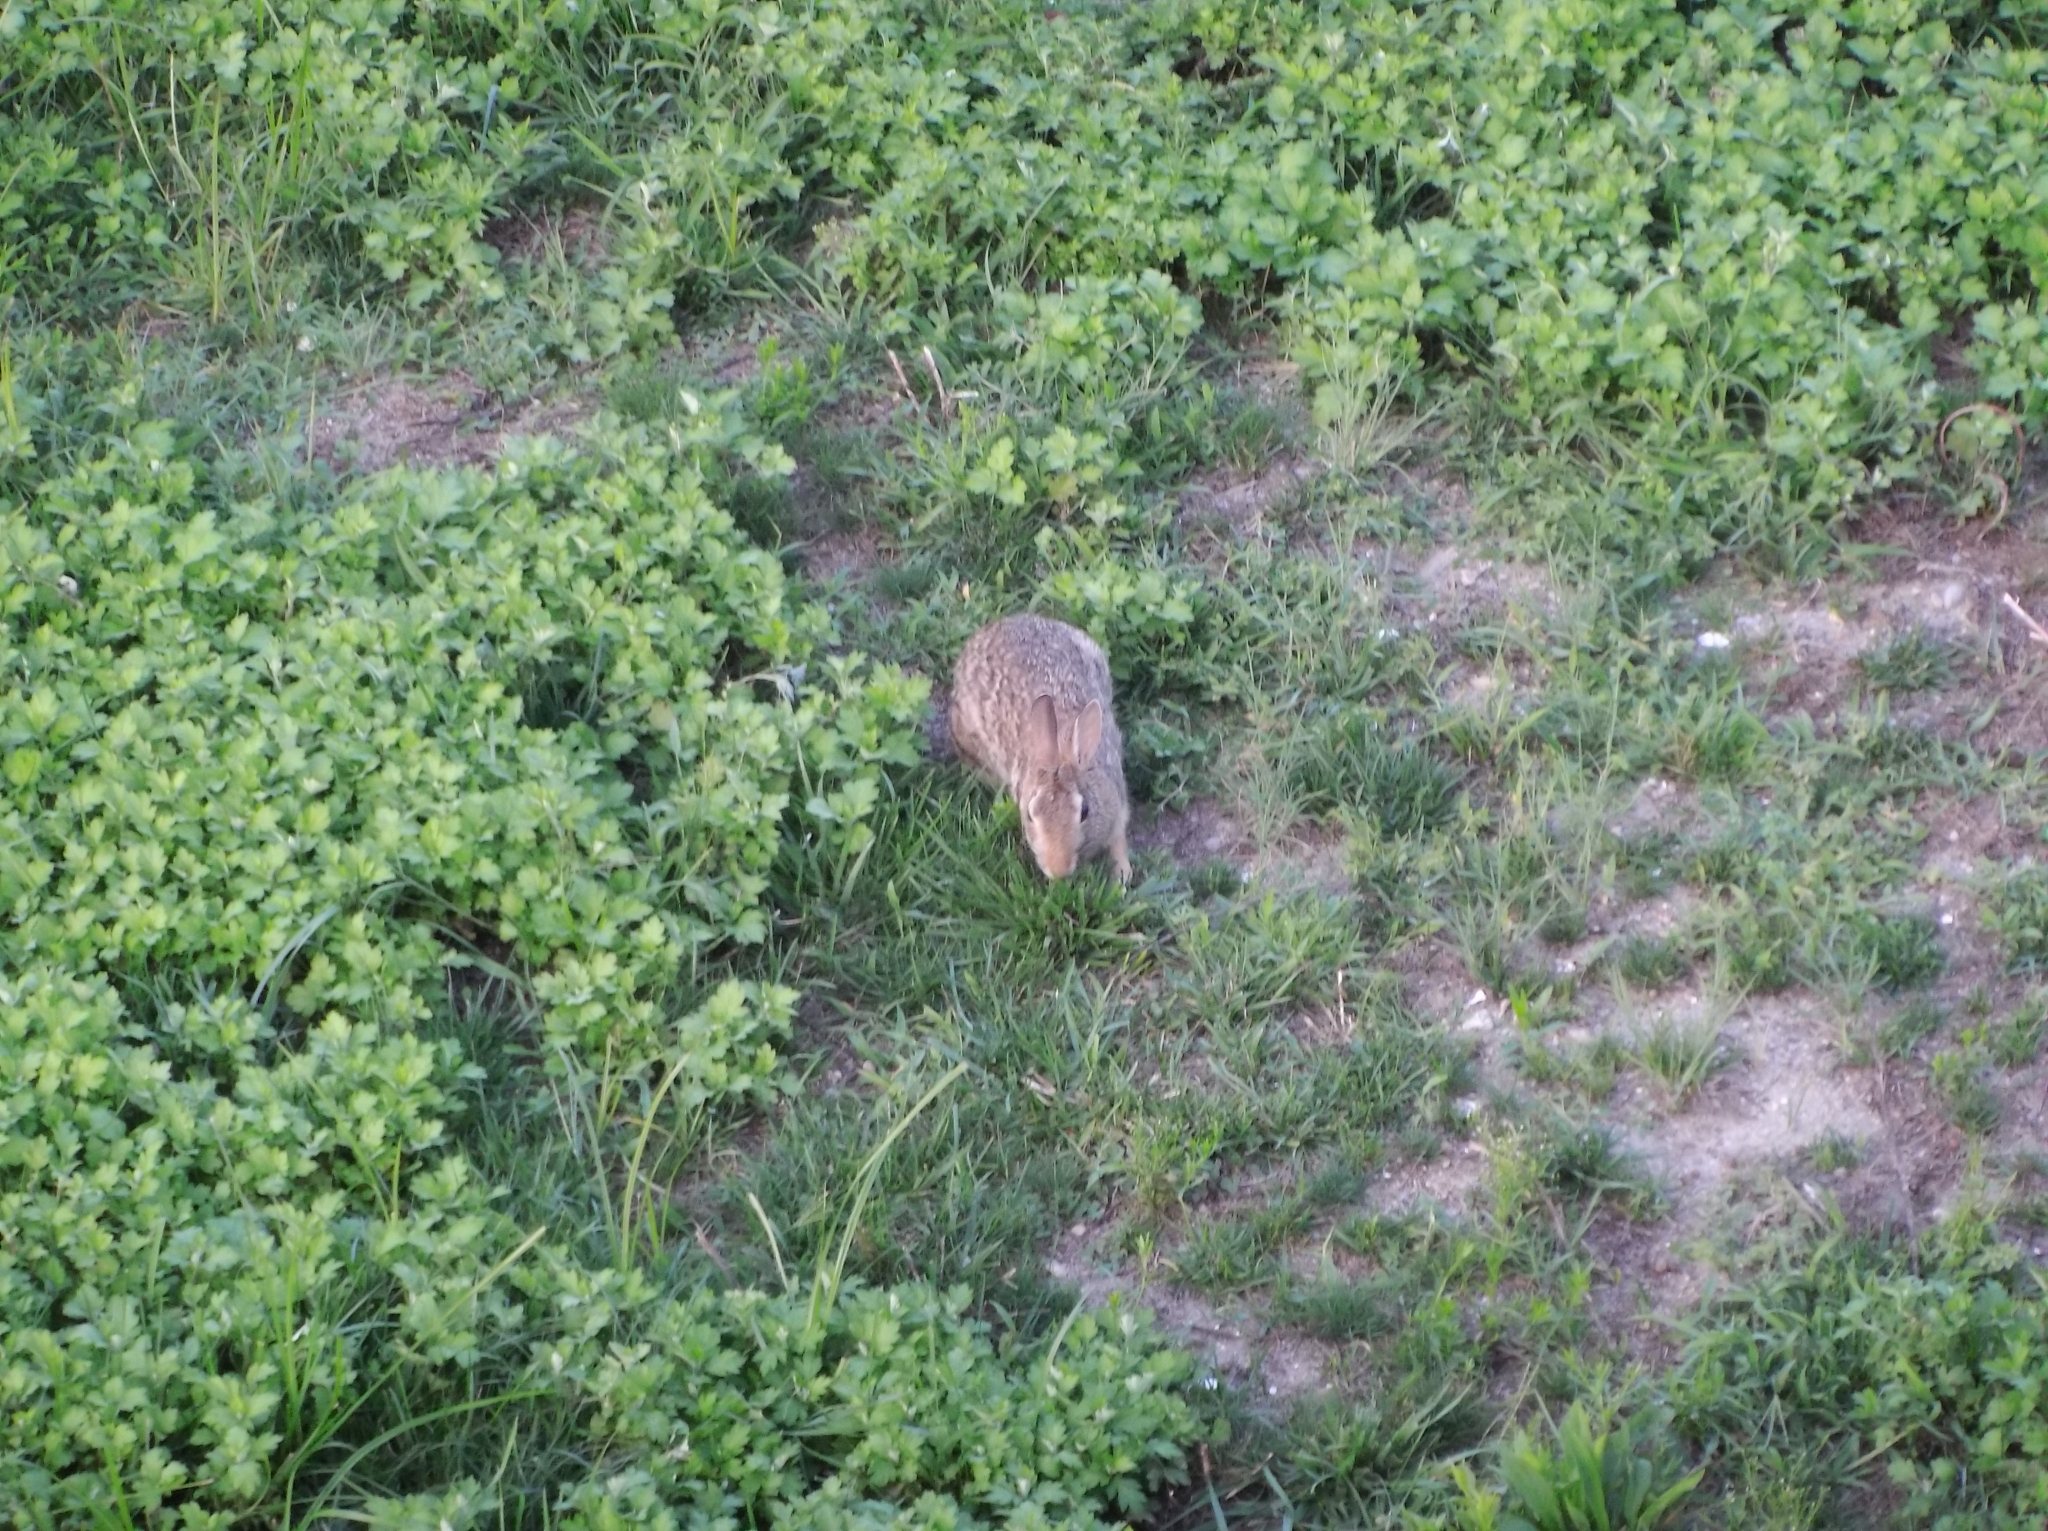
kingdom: Animalia
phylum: Chordata
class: Mammalia
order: Lagomorpha
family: Leporidae
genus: Sylvilagus
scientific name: Sylvilagus floridanus
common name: Eastern cottontail
